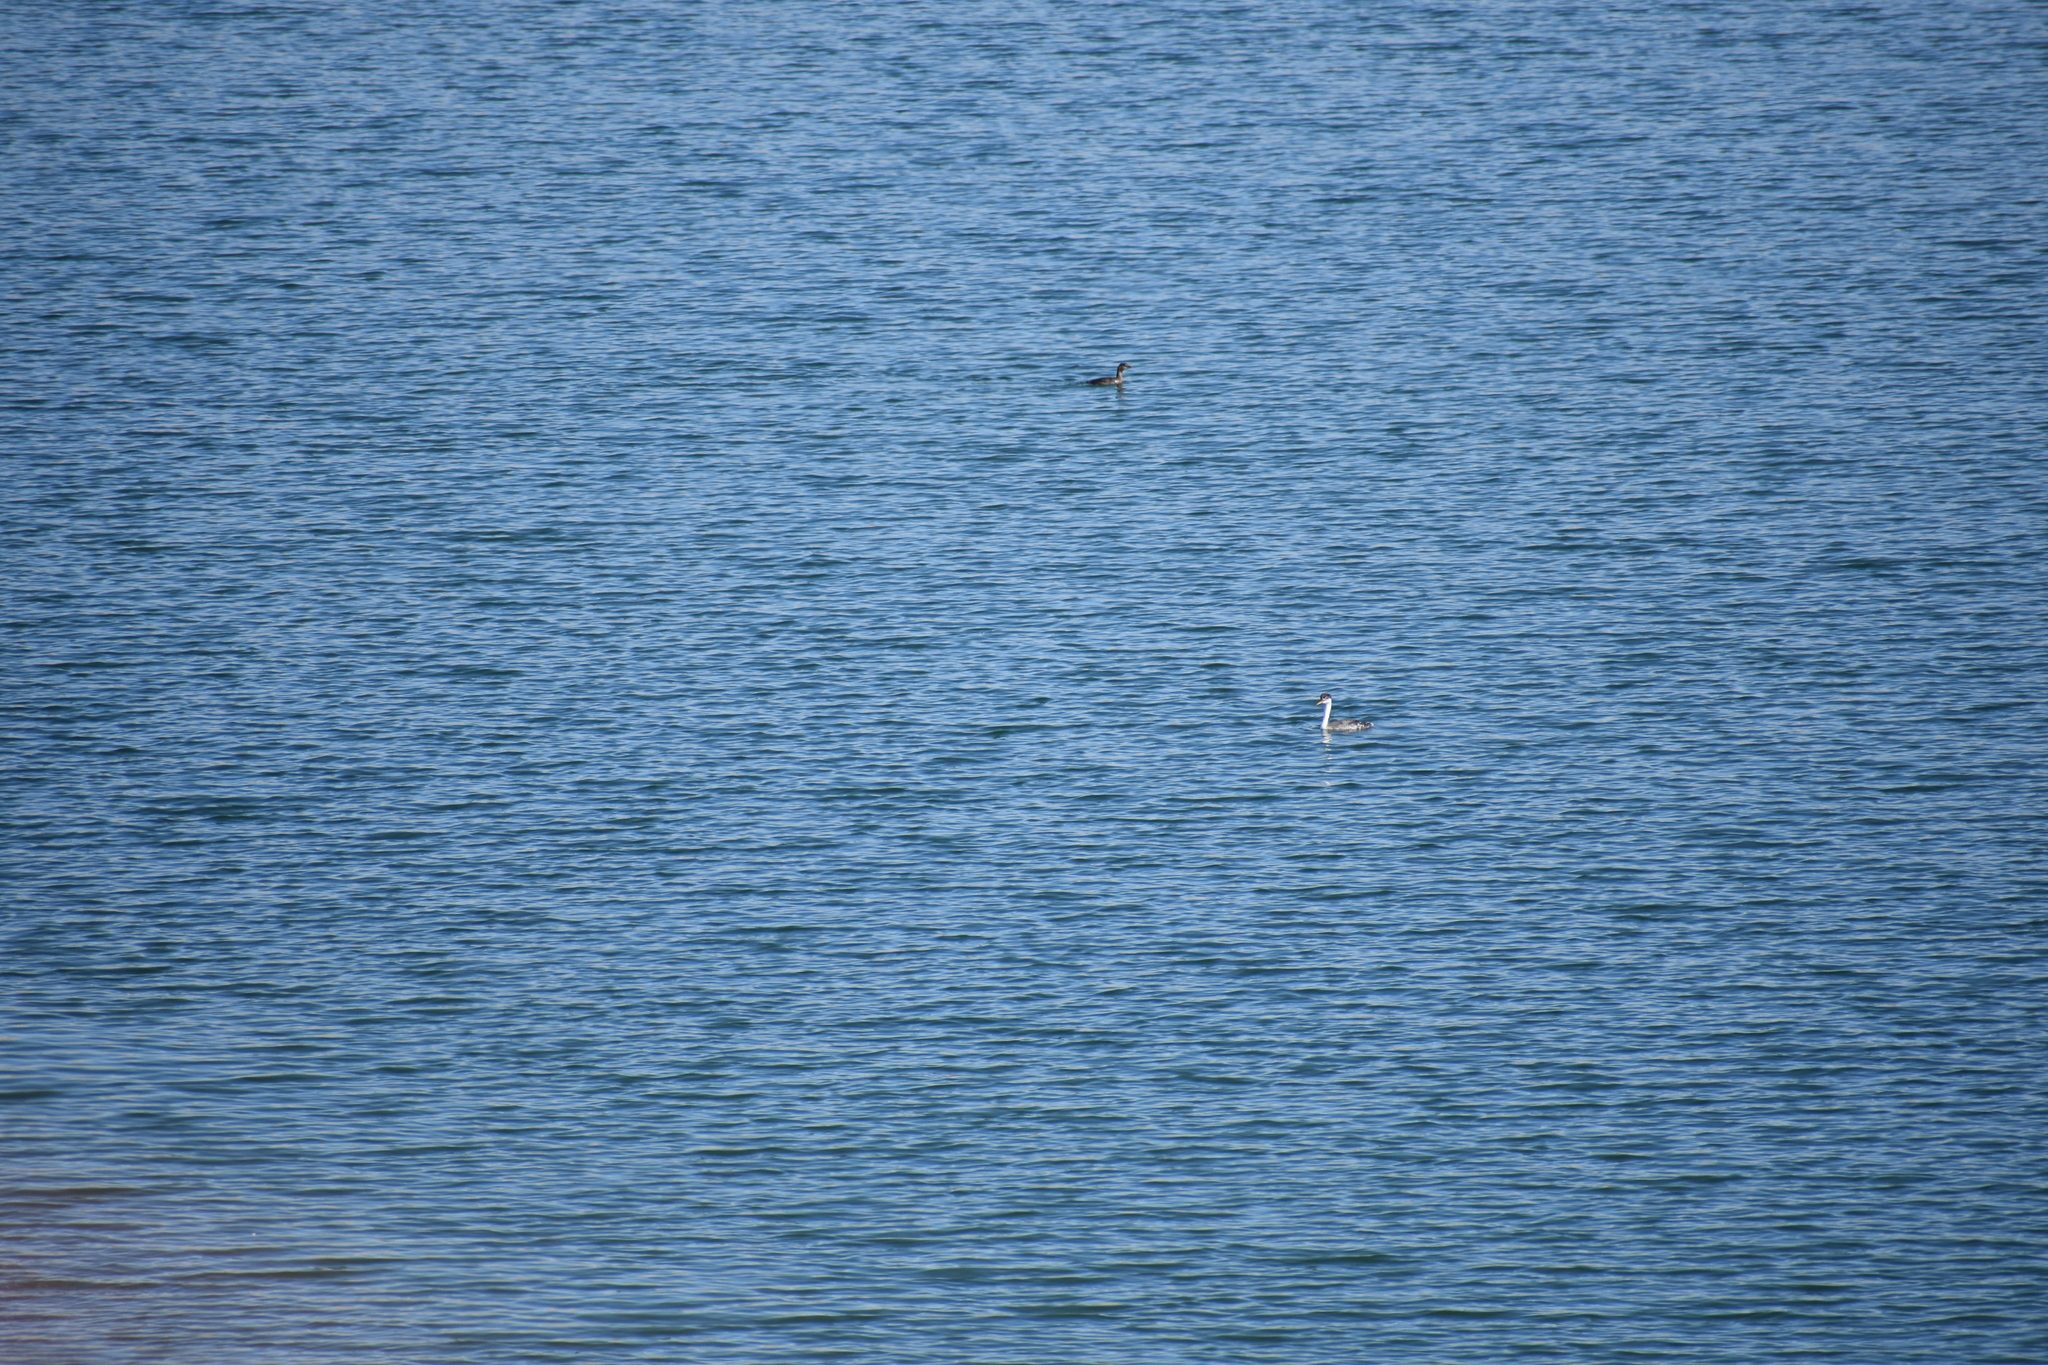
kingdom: Animalia
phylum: Chordata
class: Aves
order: Podicipediformes
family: Podicipedidae
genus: Aechmophorus
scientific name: Aechmophorus occidentalis
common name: Western grebe
